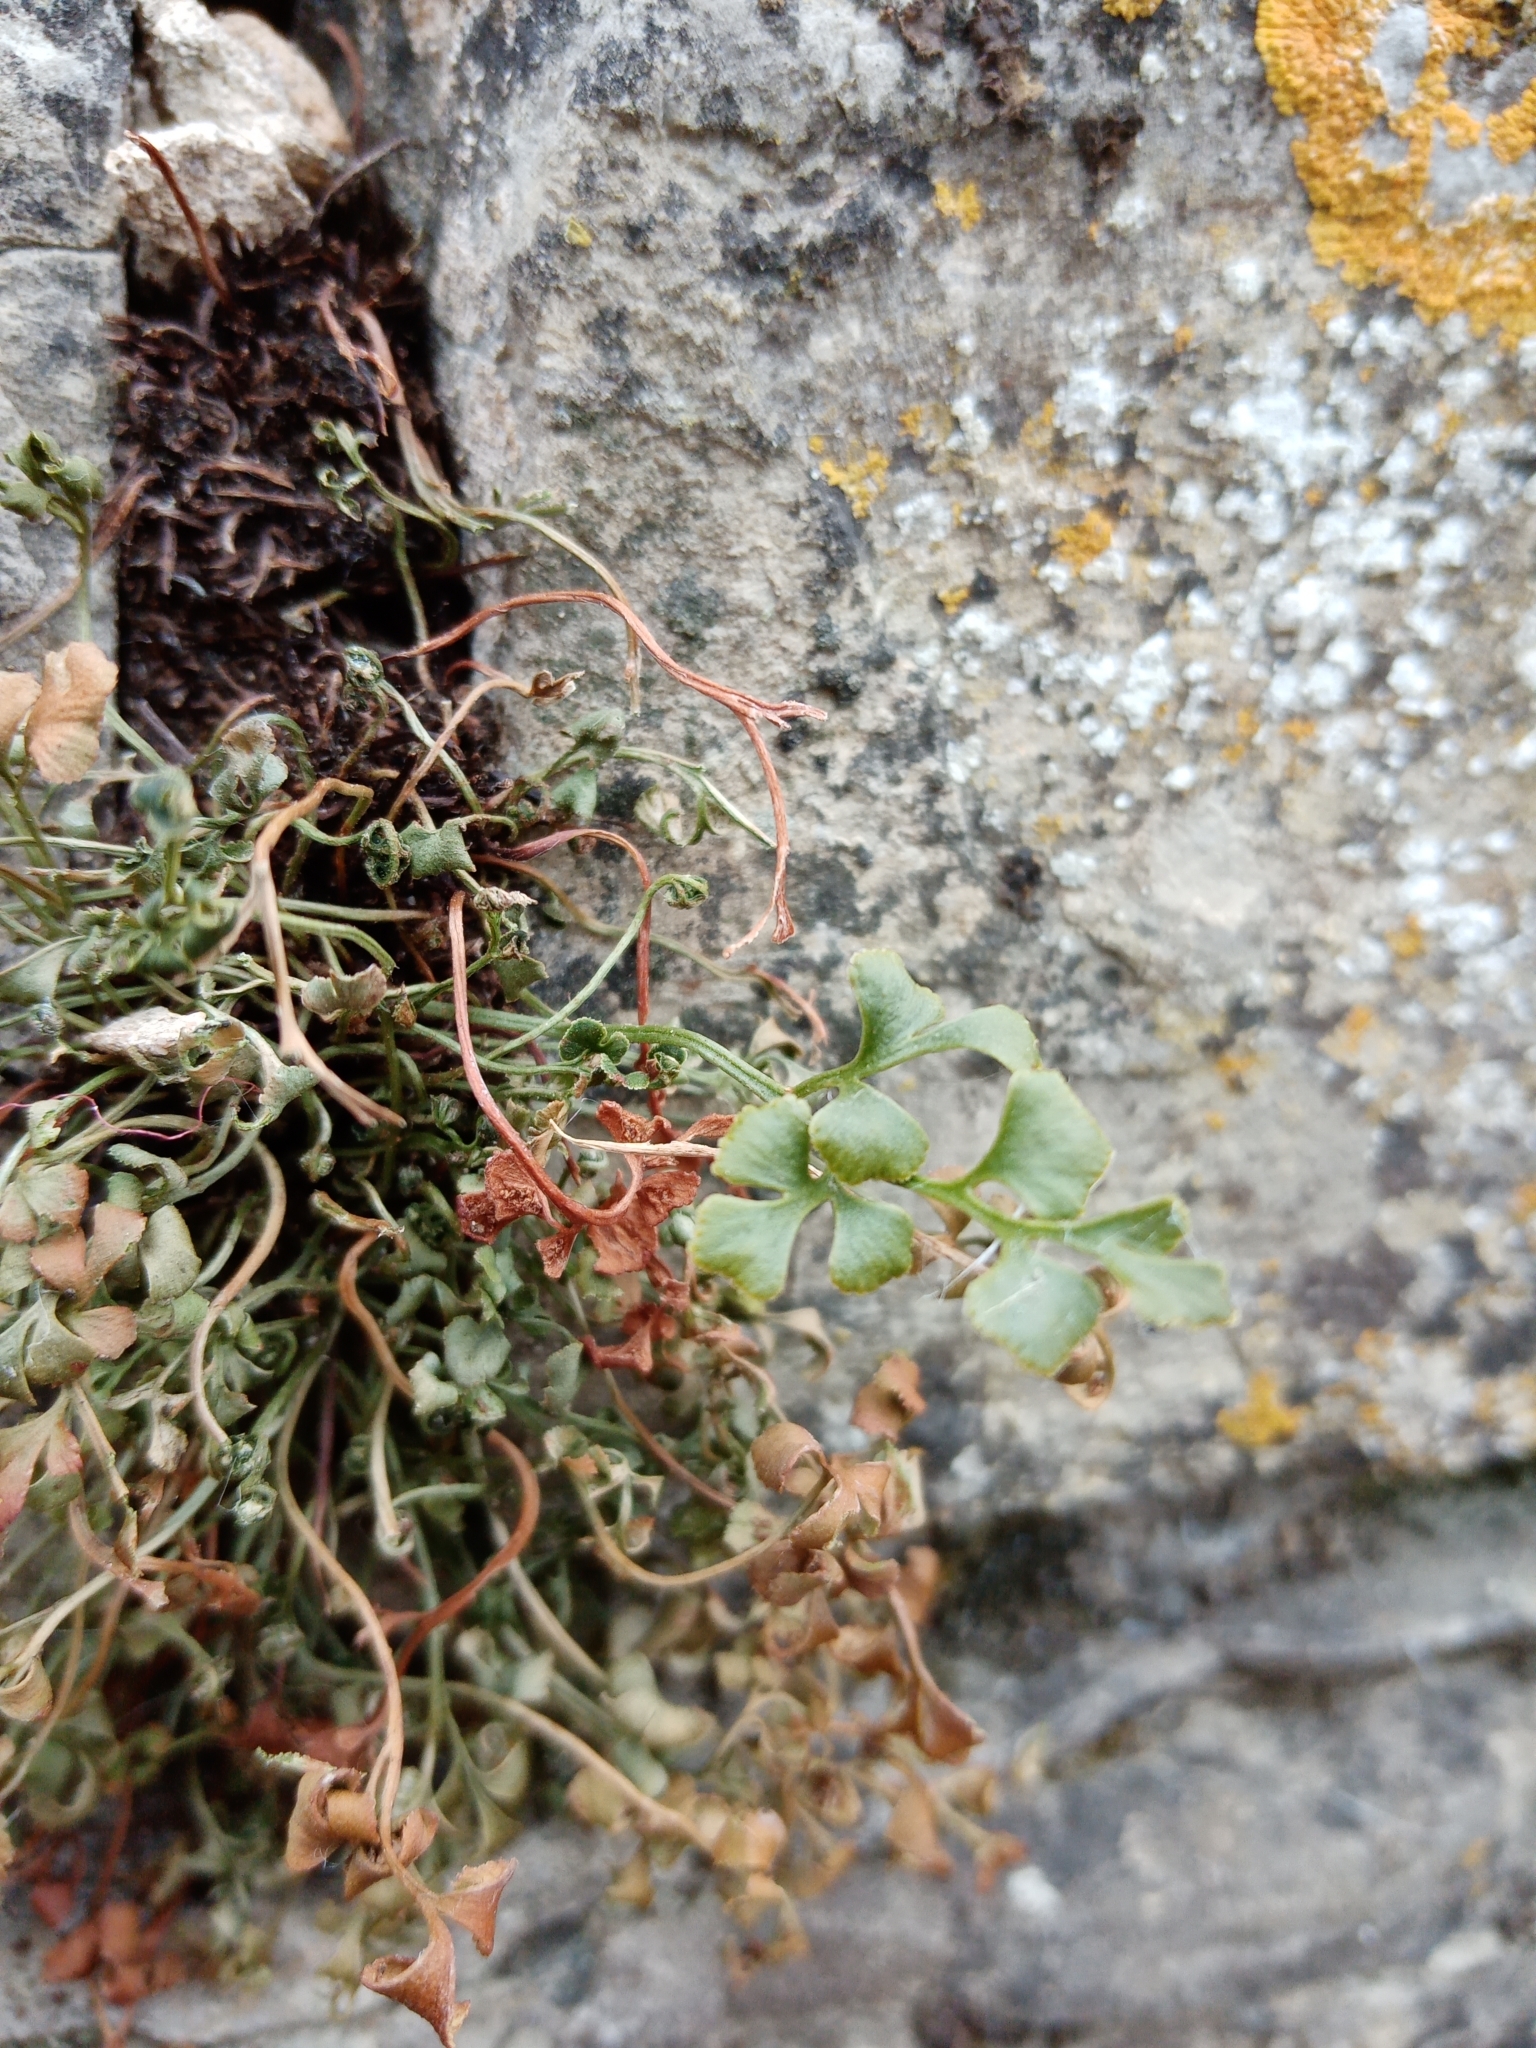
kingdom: Plantae
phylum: Tracheophyta
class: Polypodiopsida
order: Polypodiales
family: Aspleniaceae
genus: Asplenium
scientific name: Asplenium ruta-muraria
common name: Wall-rue
